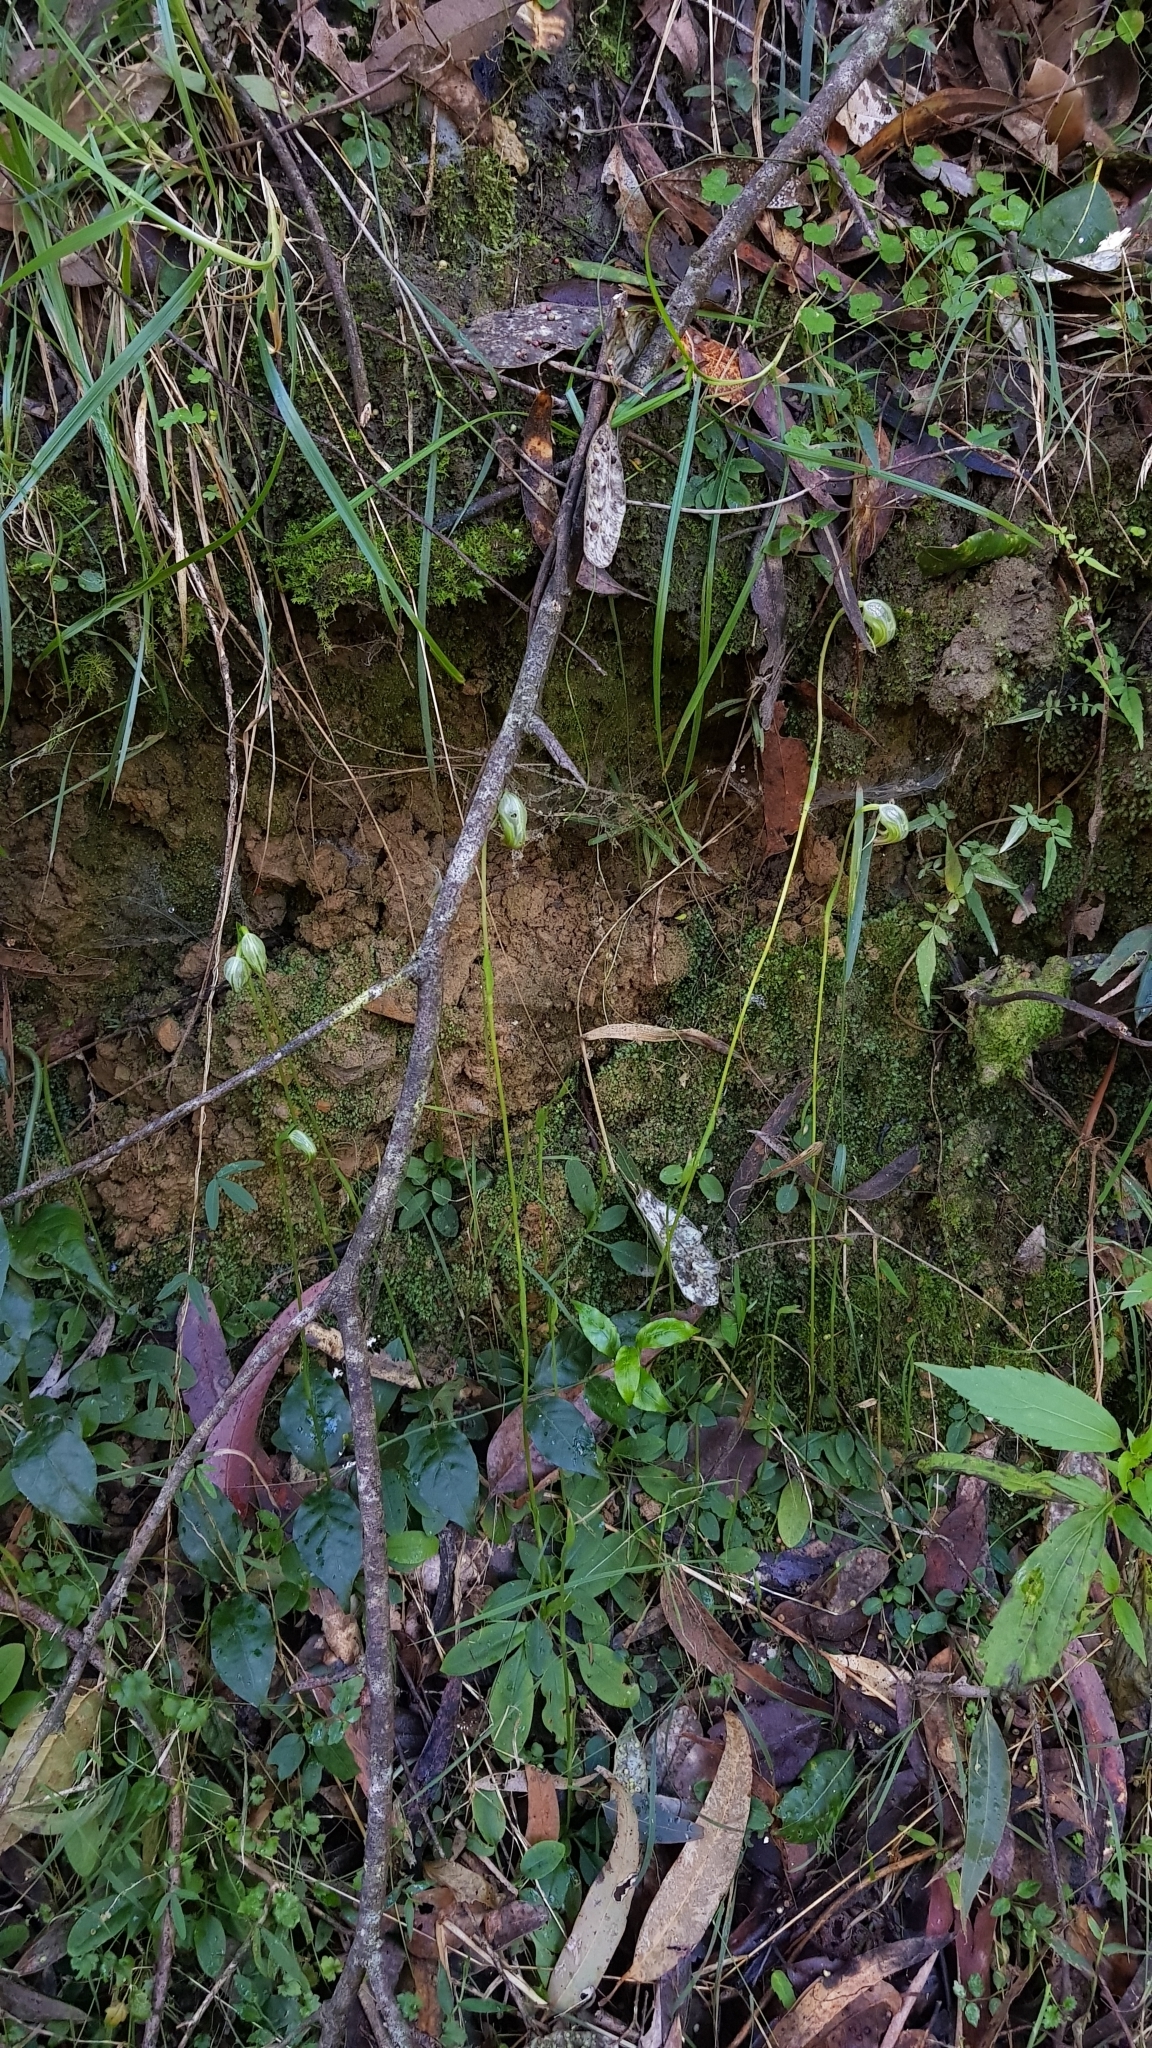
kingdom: Plantae
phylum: Tracheophyta
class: Liliopsida
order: Asparagales
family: Orchidaceae
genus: Pterostylis
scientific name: Pterostylis nutans
